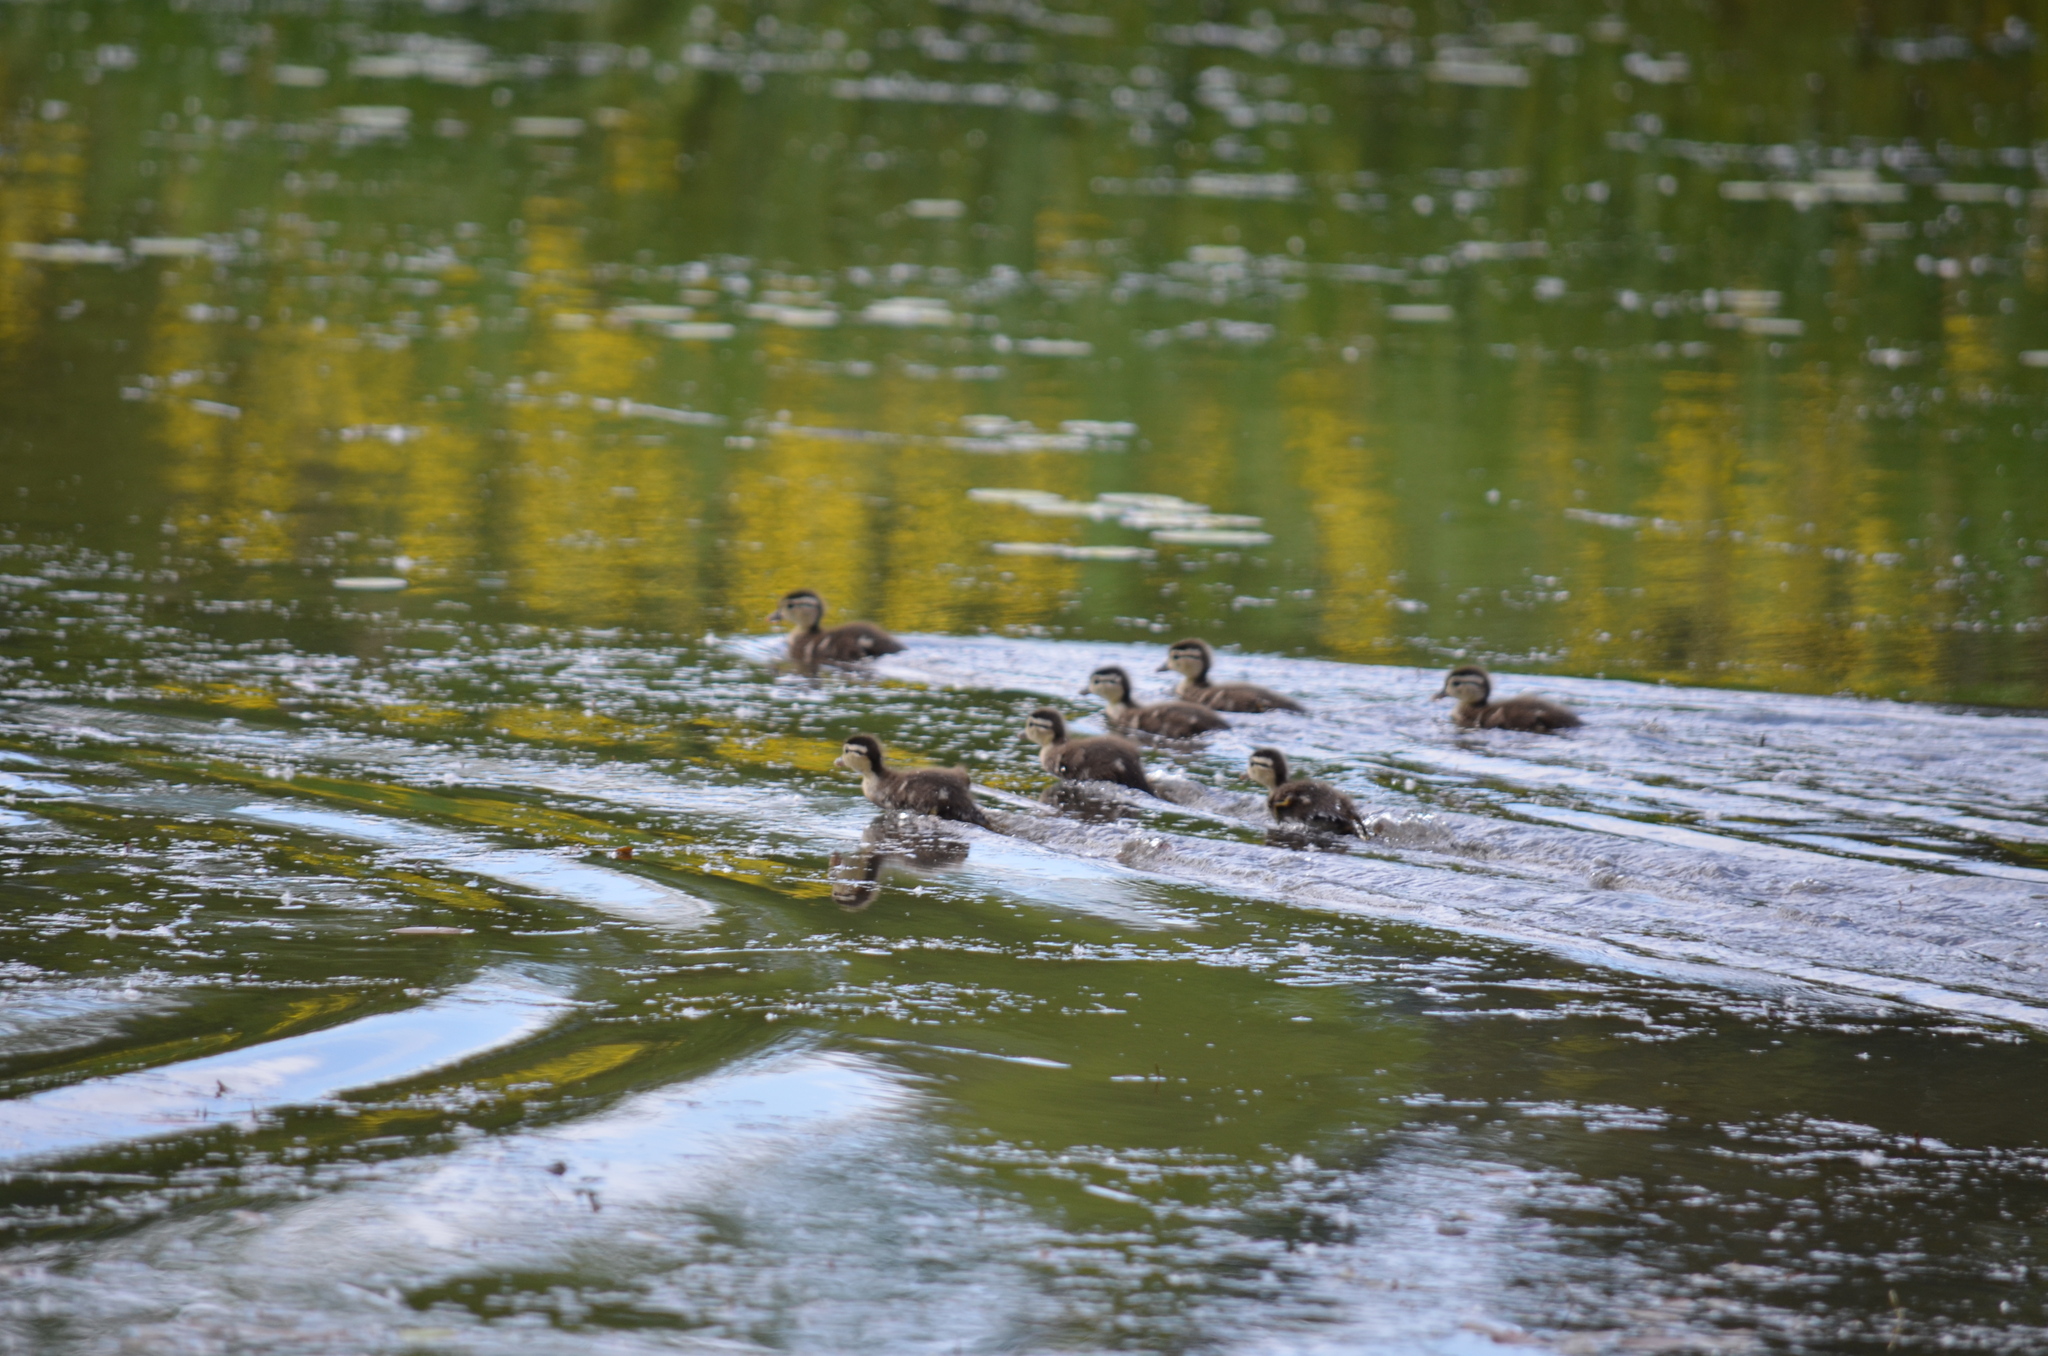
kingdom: Animalia
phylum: Chordata
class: Aves
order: Anseriformes
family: Anatidae
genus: Aix
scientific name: Aix sponsa
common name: Wood duck
